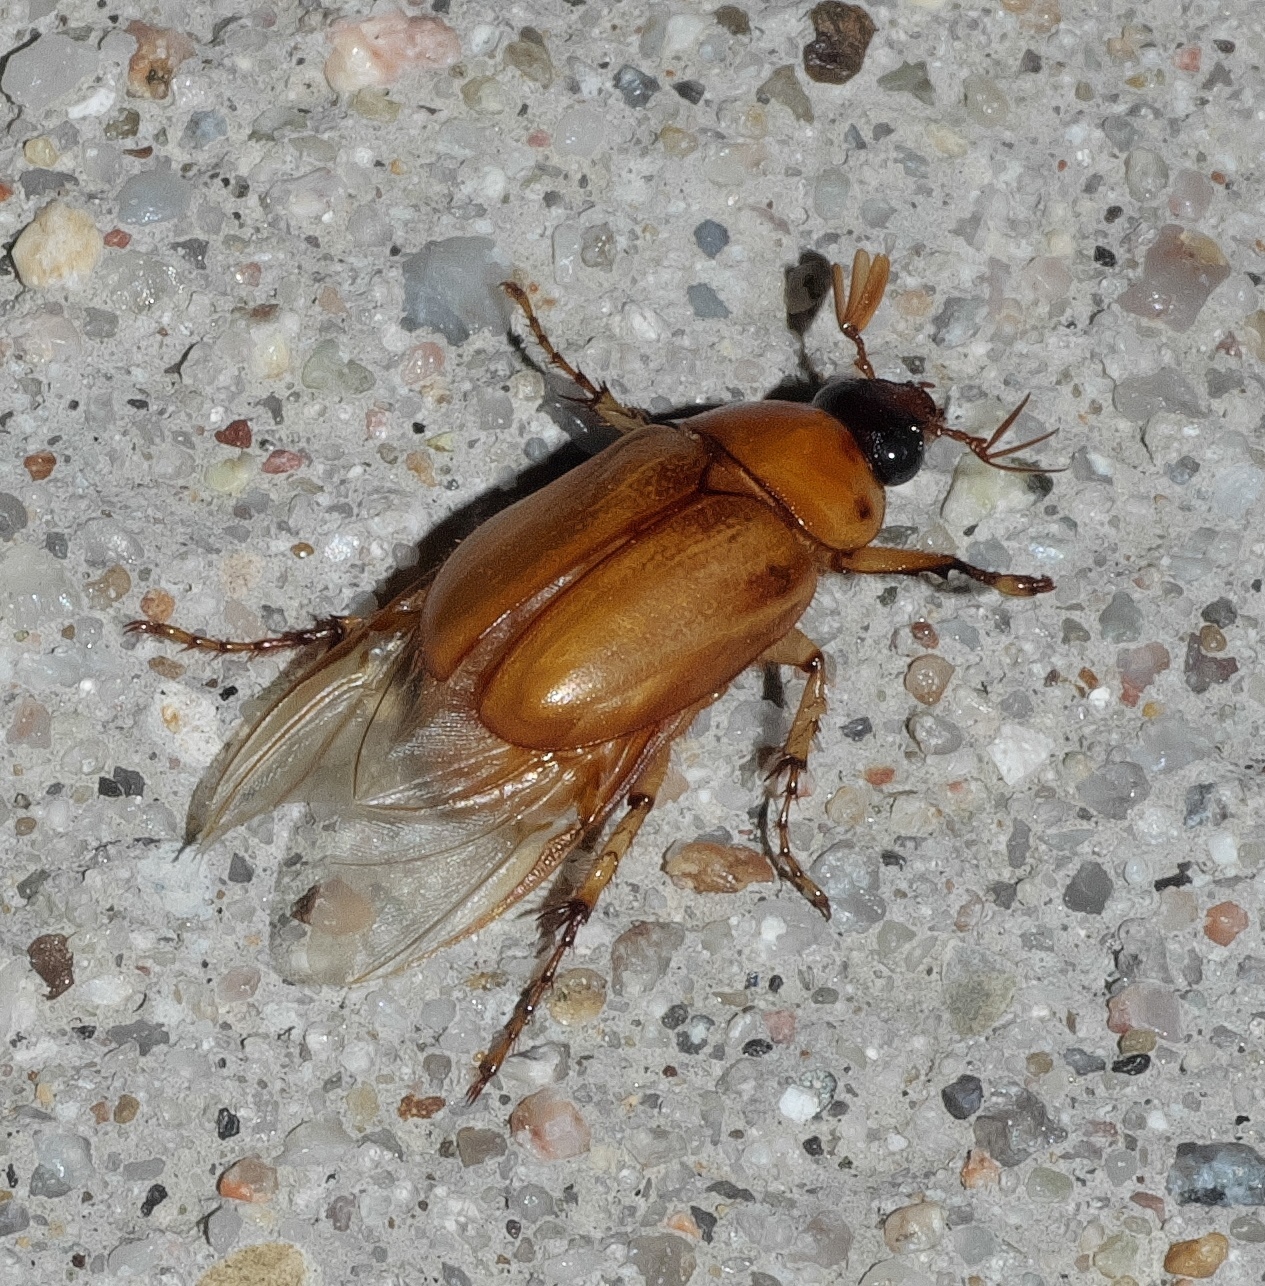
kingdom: Animalia
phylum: Arthropoda
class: Insecta
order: Coleoptera
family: Scarabaeidae
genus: Cyclocephala
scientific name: Cyclocephala lurida
